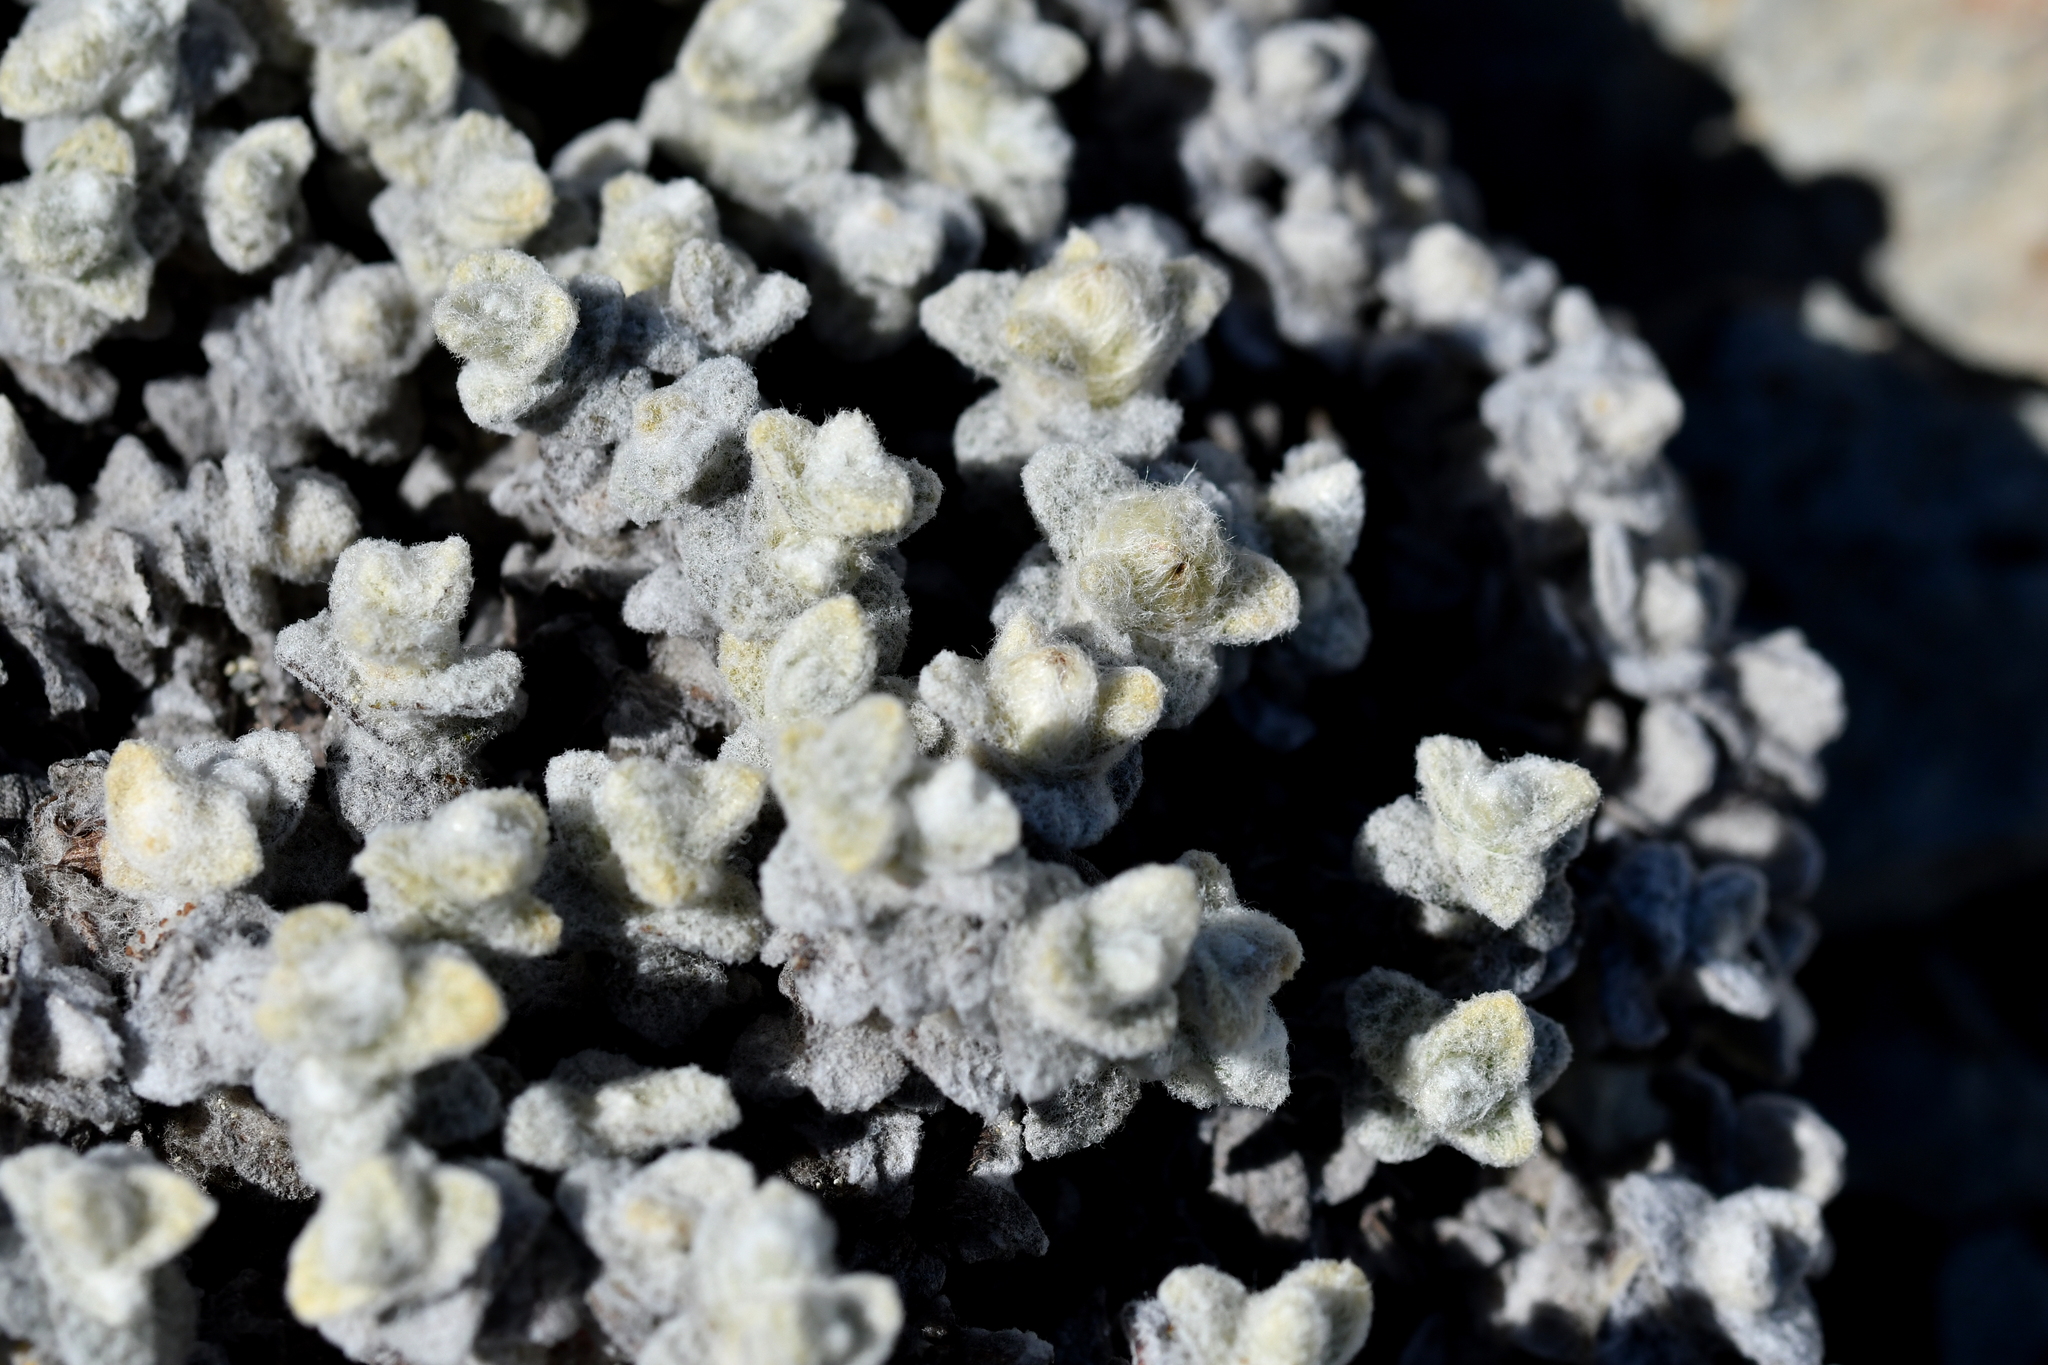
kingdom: Plantae
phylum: Tracheophyta
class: Magnoliopsida
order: Asterales
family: Asteraceae
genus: Haastia
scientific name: Haastia recurva
